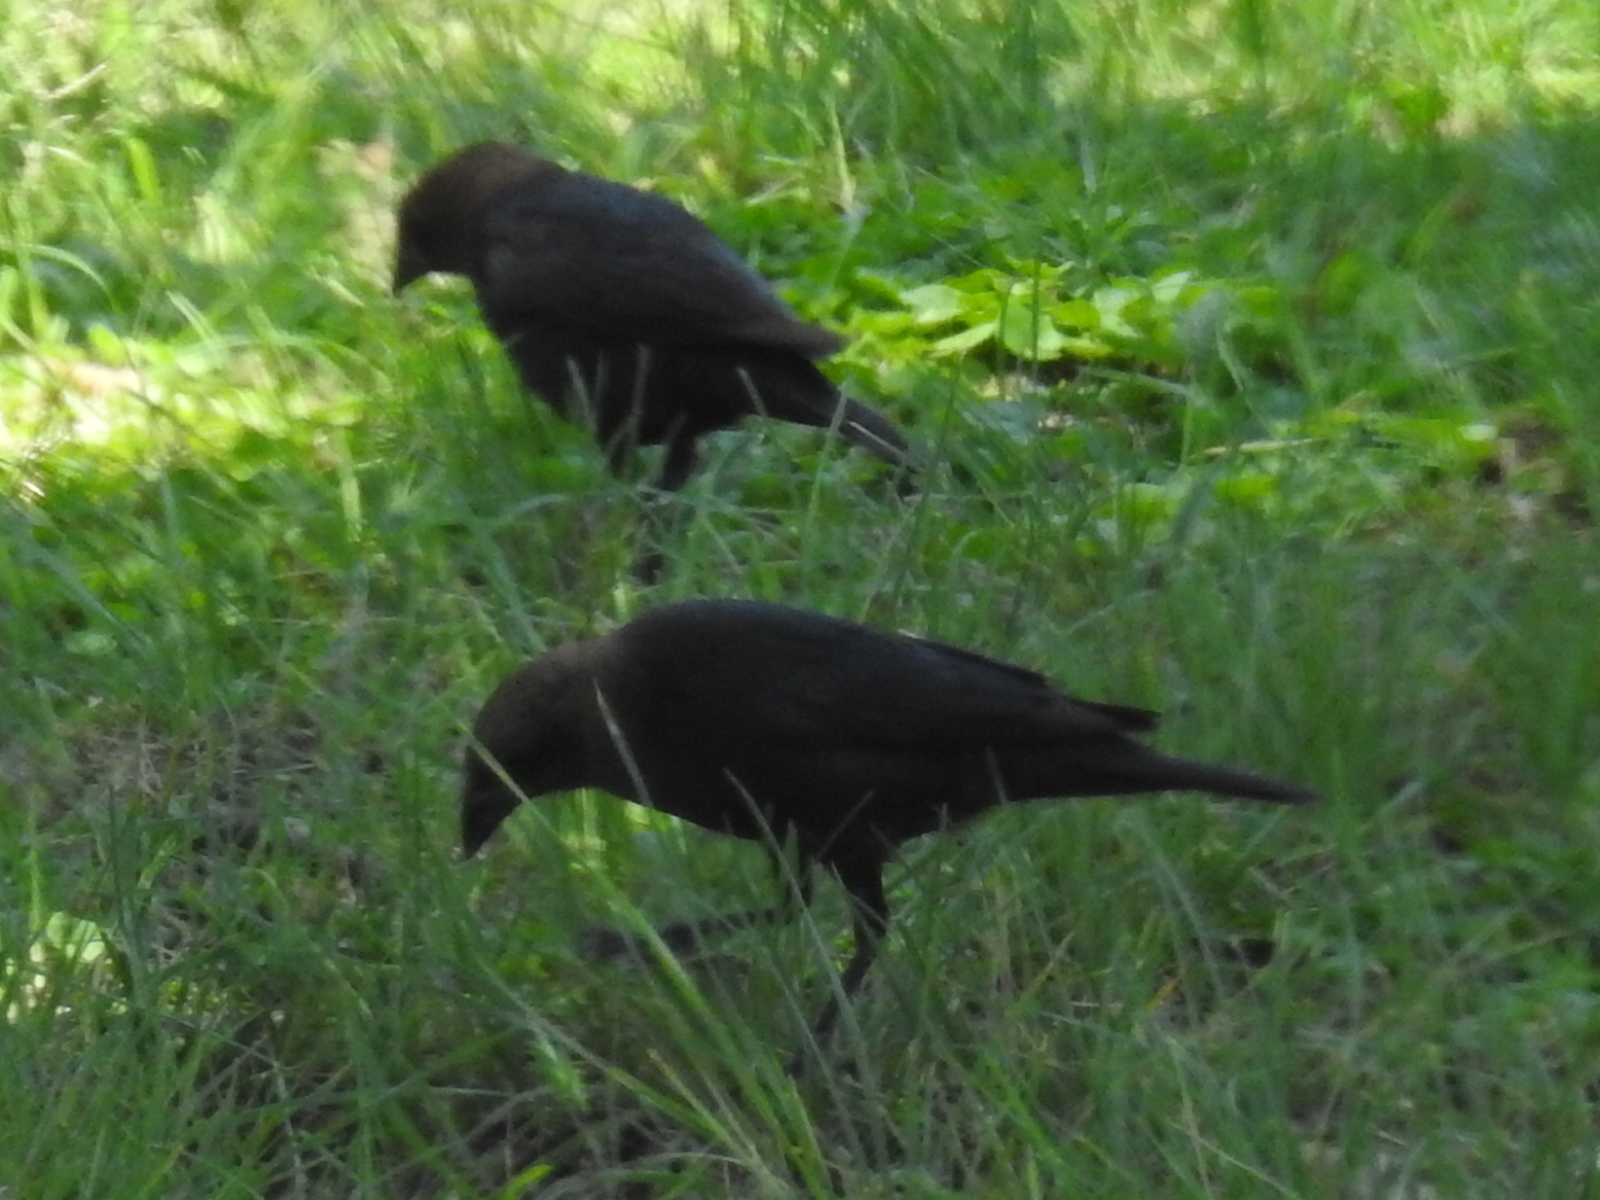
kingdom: Animalia
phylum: Chordata
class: Aves
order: Passeriformes
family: Icteridae
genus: Molothrus
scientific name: Molothrus ater
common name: Brown-headed cowbird
